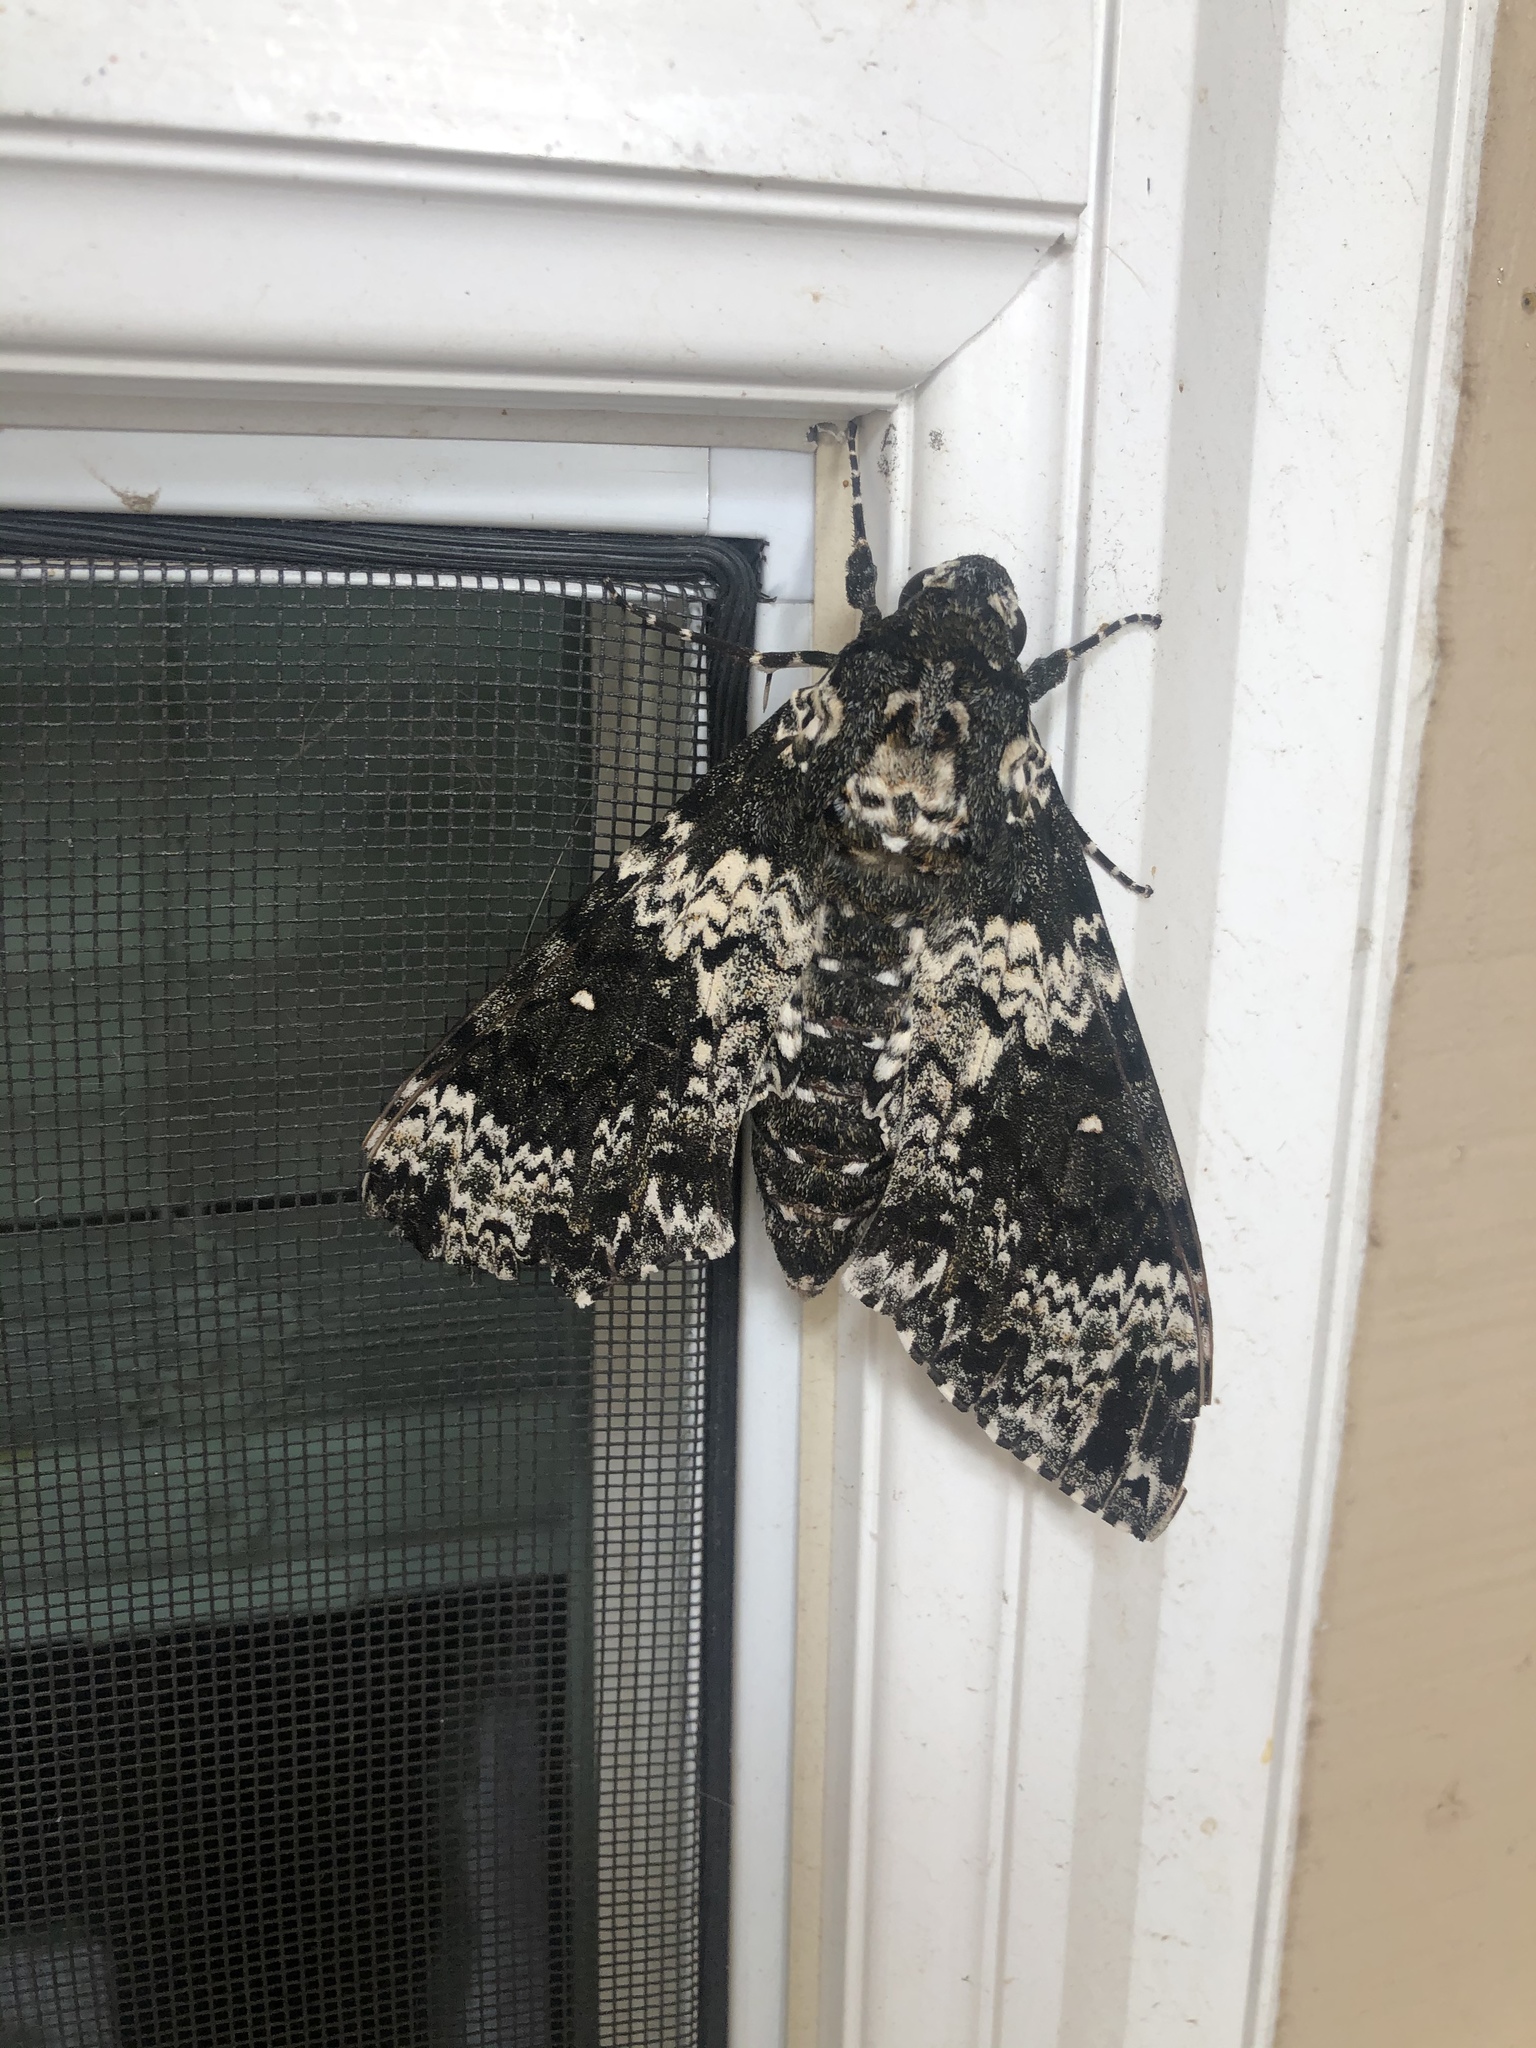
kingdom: Animalia
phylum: Arthropoda
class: Insecta
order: Lepidoptera
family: Sphingidae
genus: Manduca
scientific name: Manduca rustica
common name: Rustic sphinx
